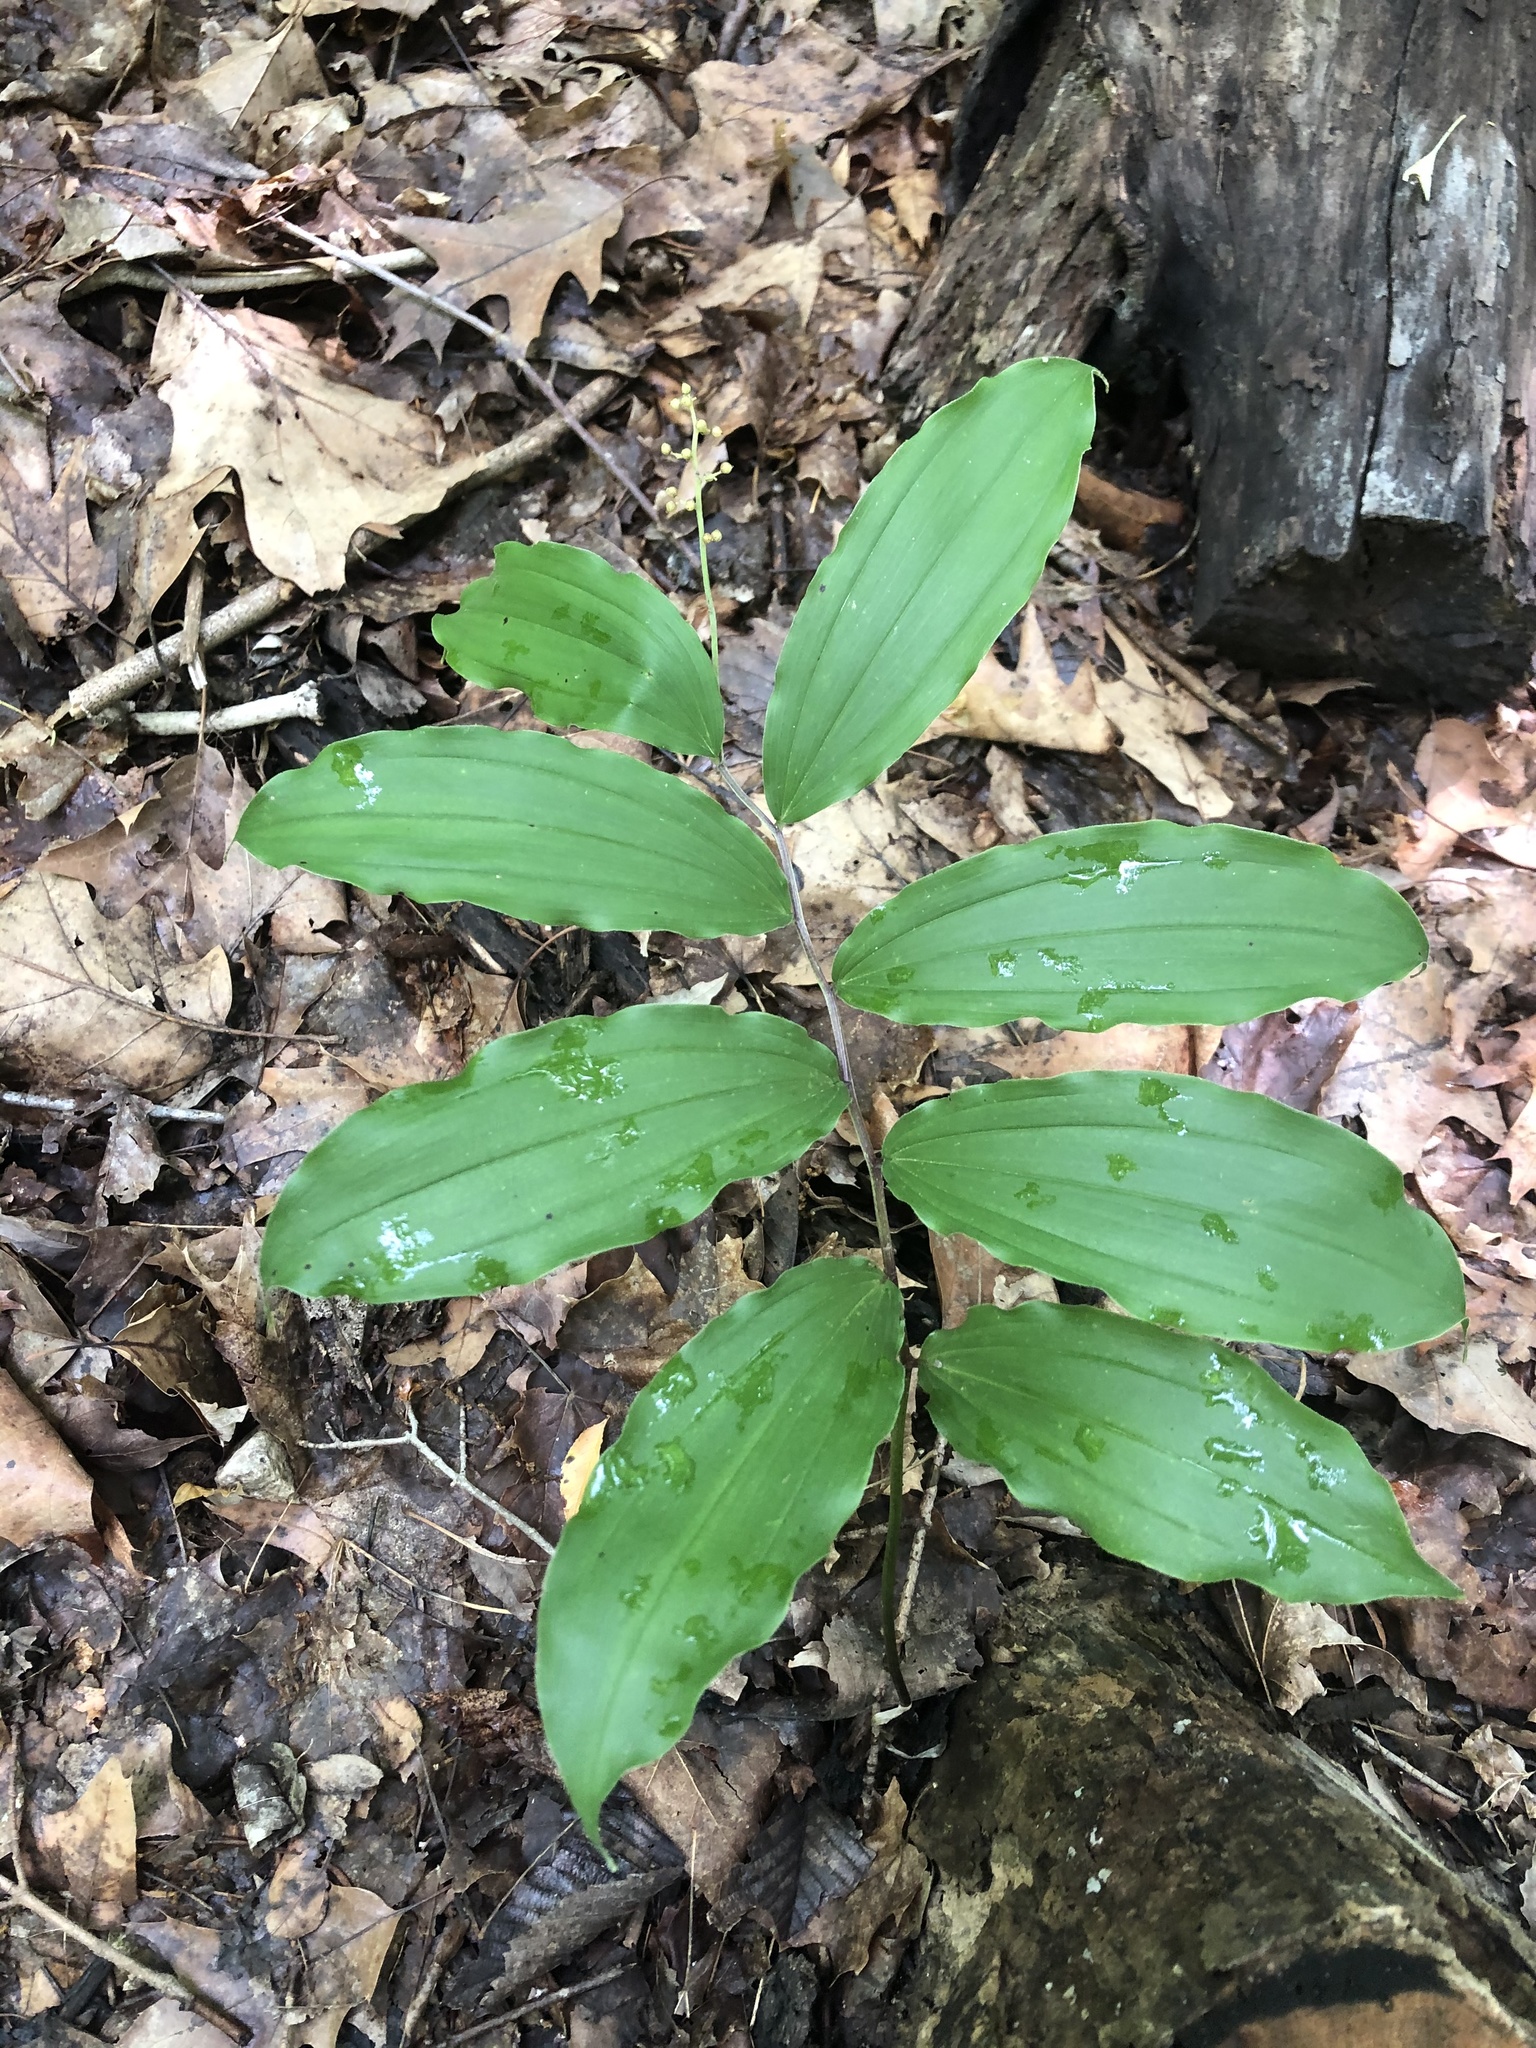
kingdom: Plantae
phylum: Tracheophyta
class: Liliopsida
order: Asparagales
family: Asparagaceae
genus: Maianthemum
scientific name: Maianthemum racemosum
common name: False spikenard
